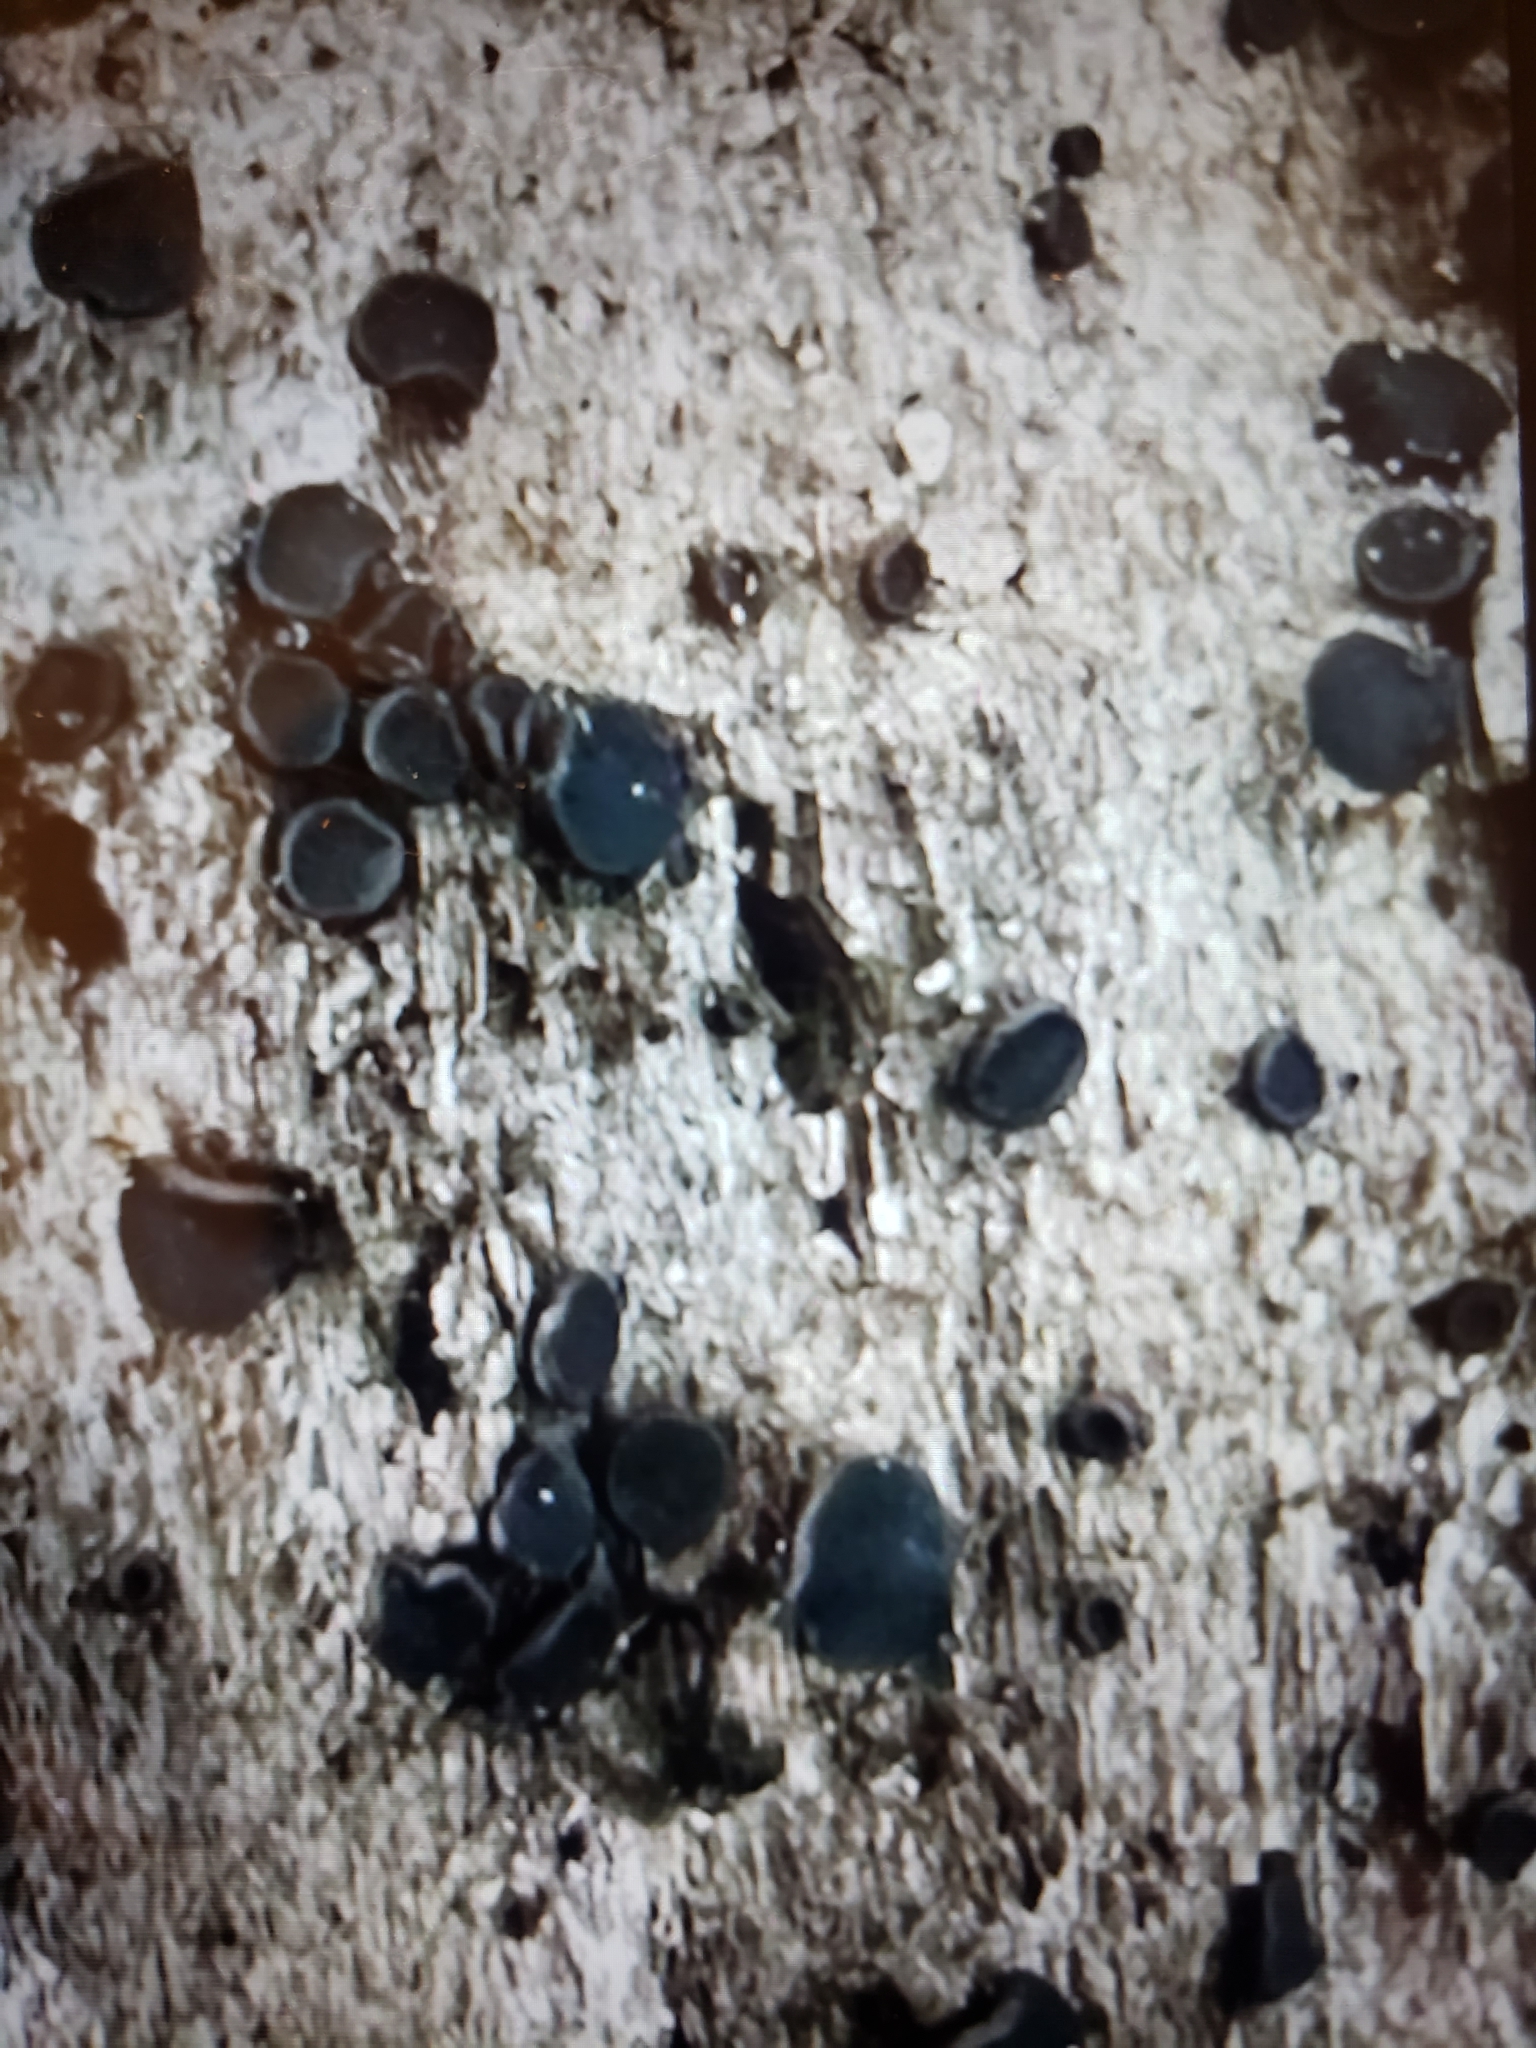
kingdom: Fungi
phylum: Ascomycota
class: Eurotiomycetes
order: Sclerococcales
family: Sclerococcaceae
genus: Sclerococcum
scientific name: Sclerococcum stygium
